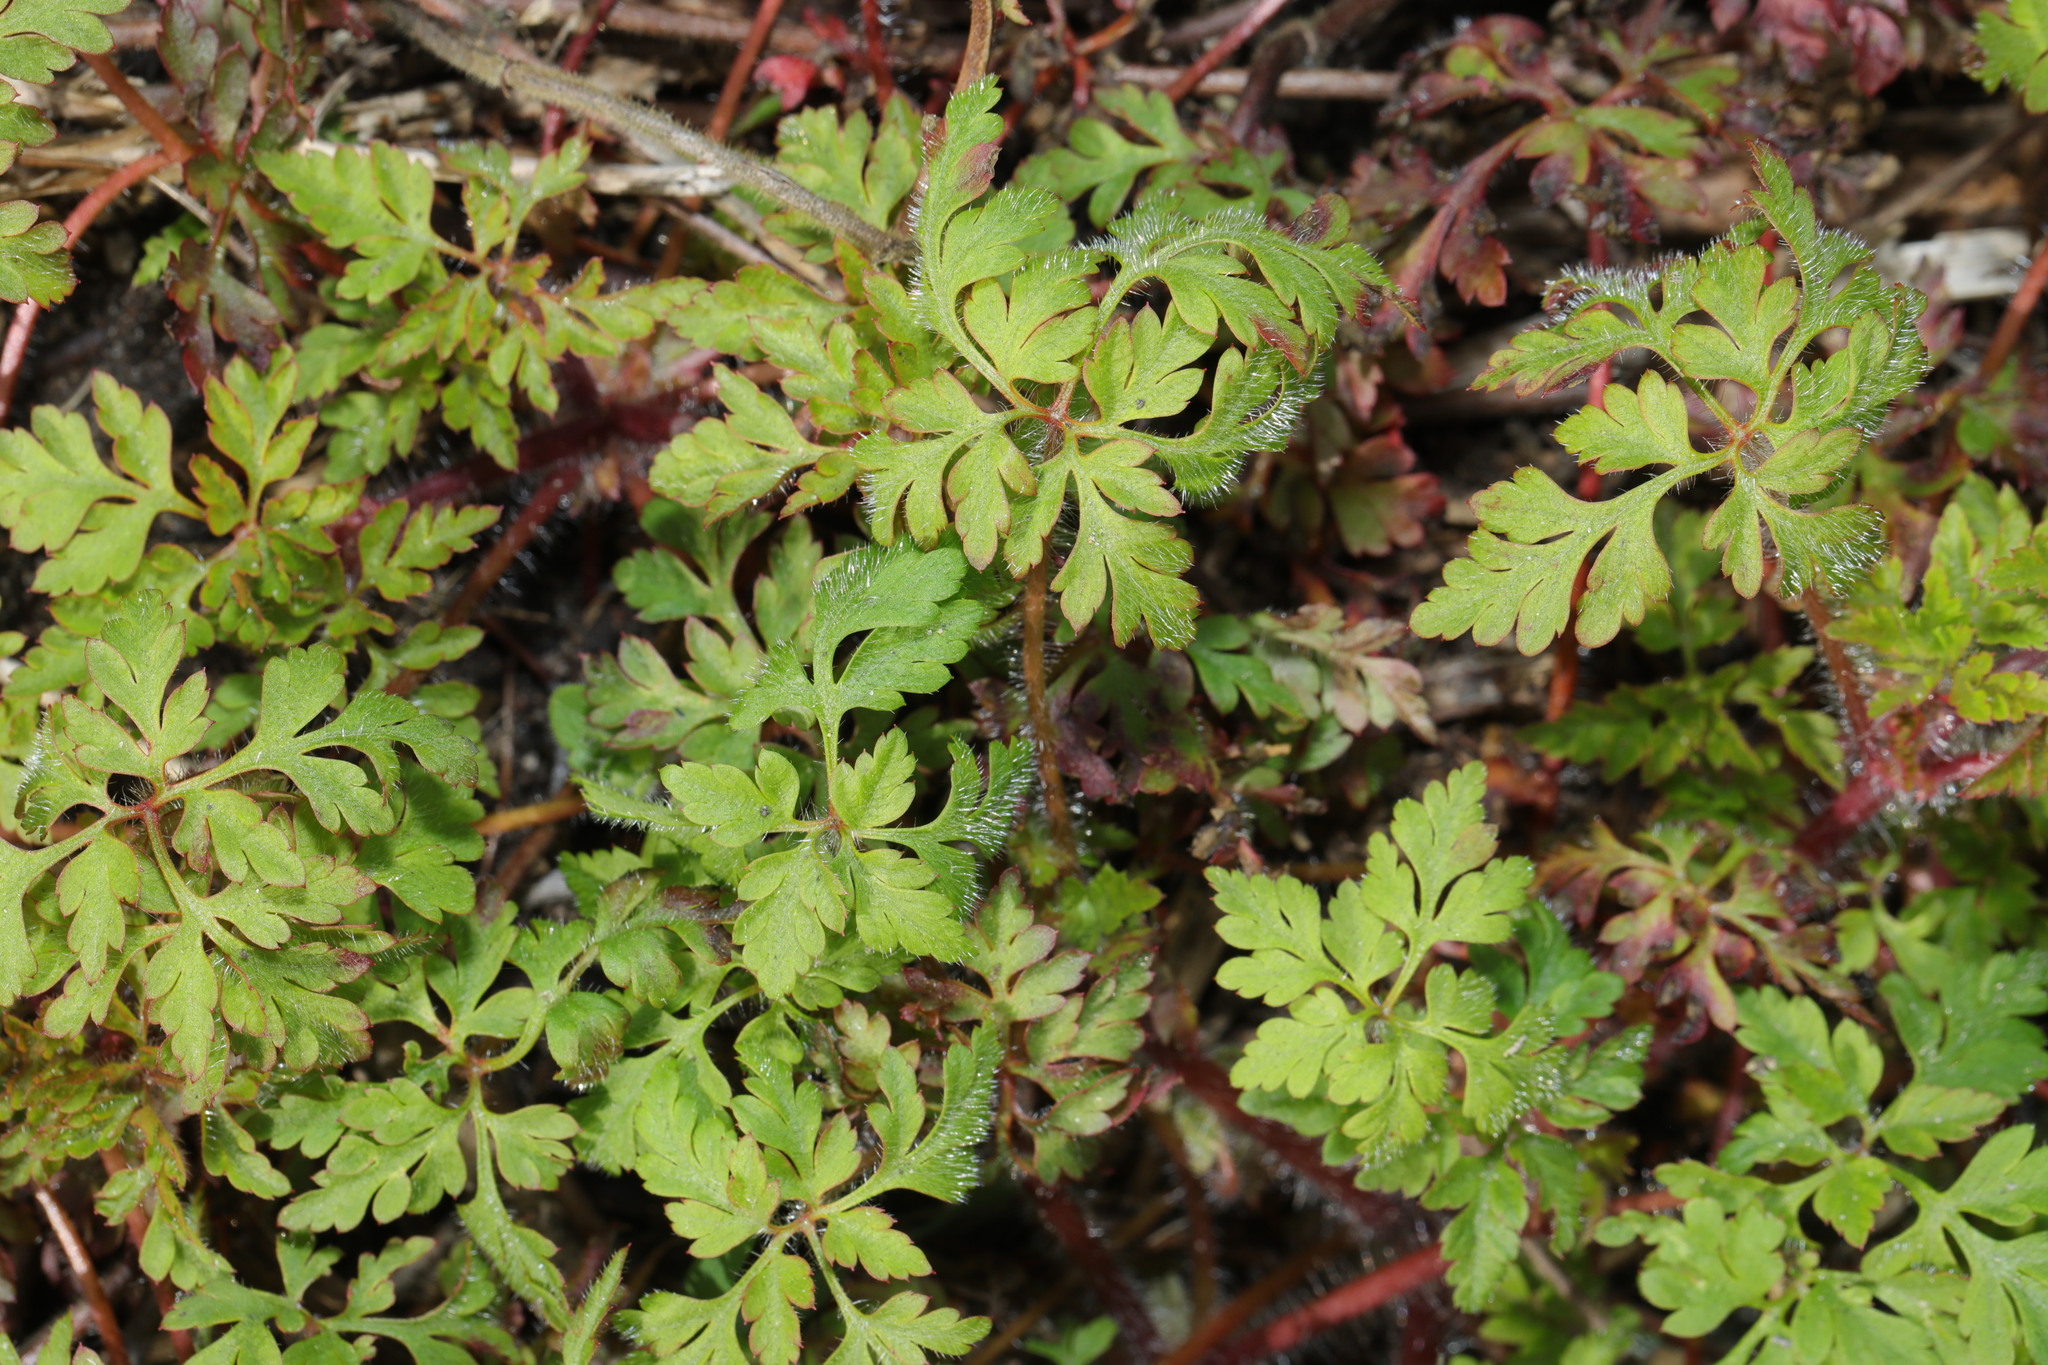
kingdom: Plantae
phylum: Tracheophyta
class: Magnoliopsida
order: Geraniales
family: Geraniaceae
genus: Geranium
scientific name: Geranium robertianum
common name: Herb-robert
